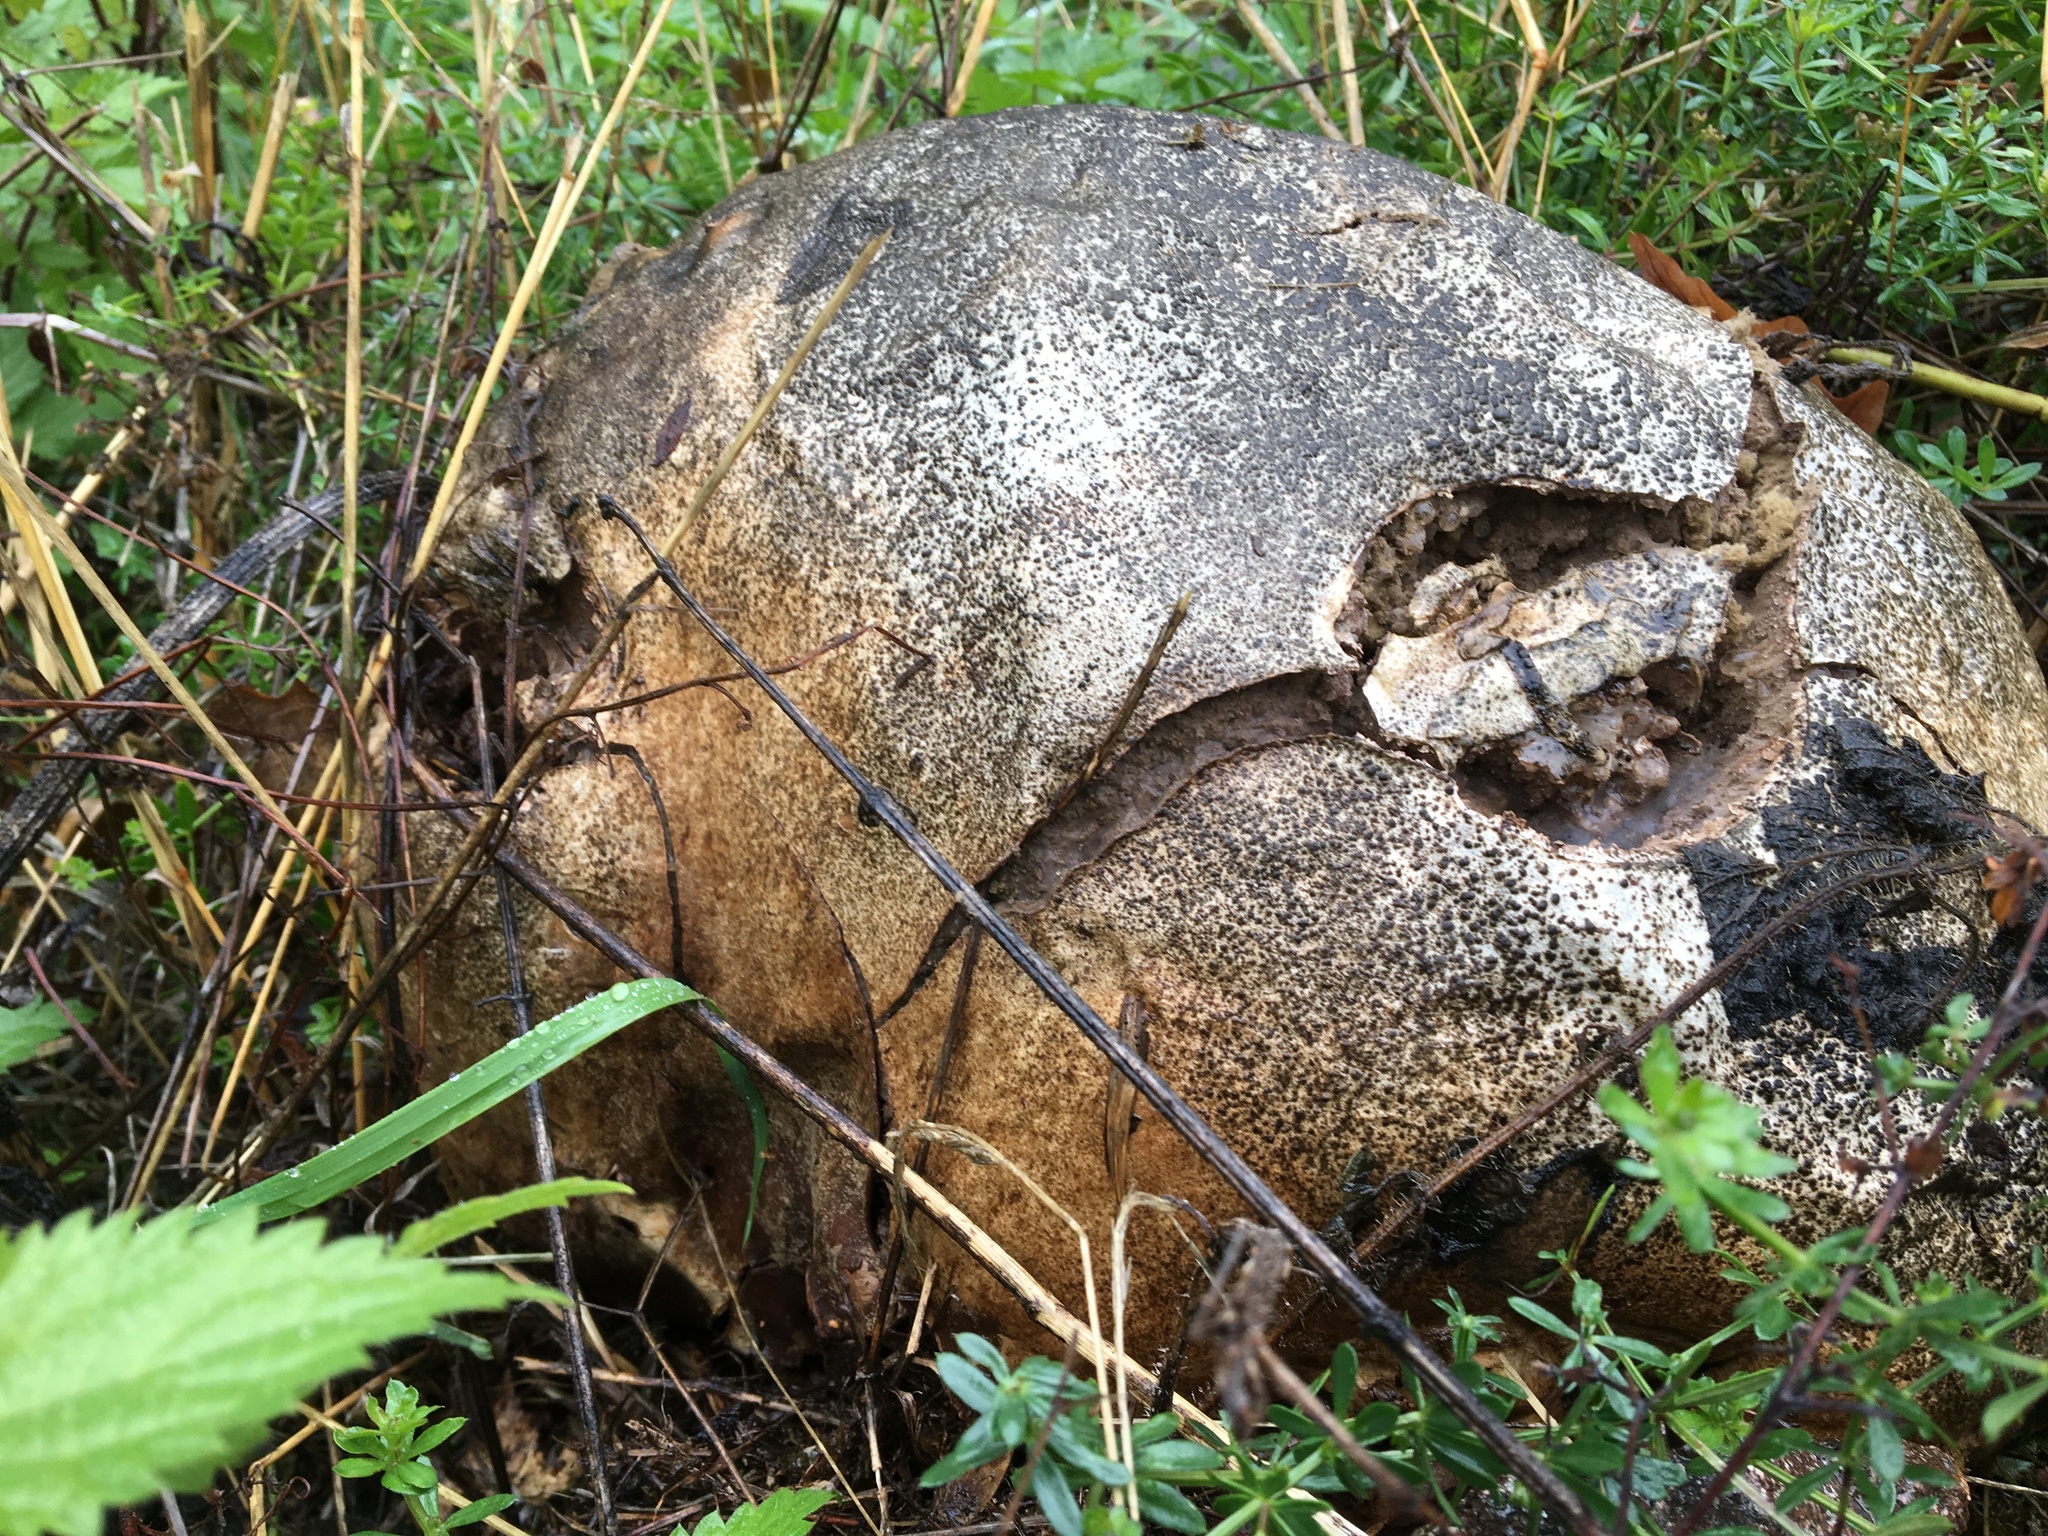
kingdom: Fungi
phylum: Basidiomycota
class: Agaricomycetes
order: Agaricales
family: Lycoperdaceae
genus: Calvatia
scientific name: Calvatia gigantea
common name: Giant puffball
